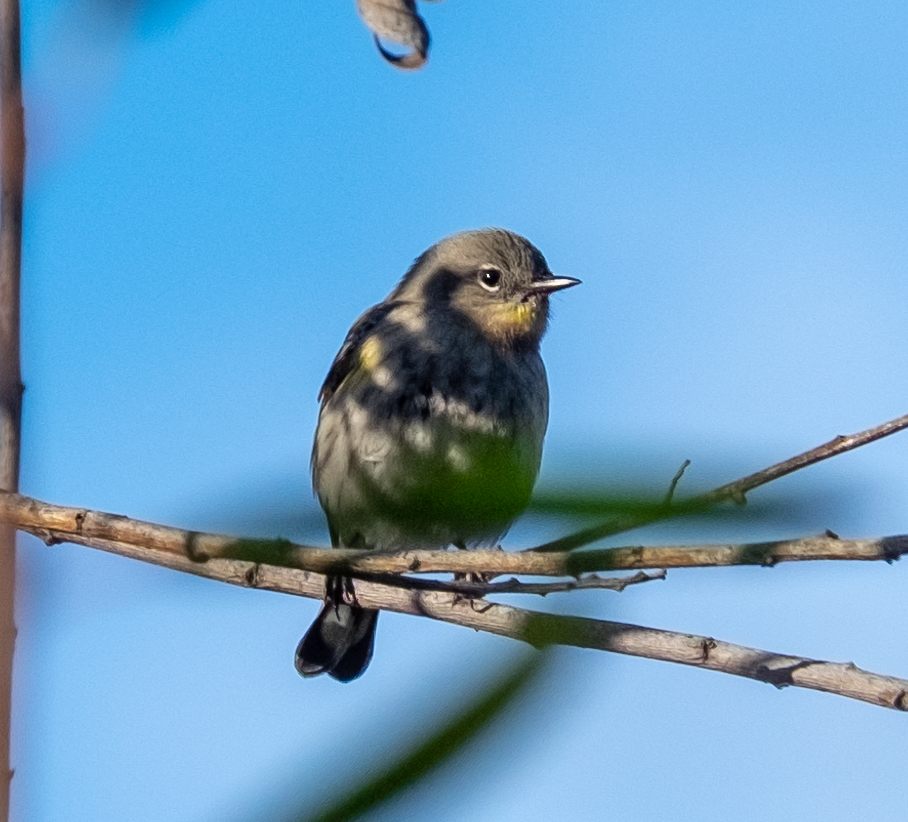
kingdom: Animalia
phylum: Chordata
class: Aves
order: Passeriformes
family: Parulidae
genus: Setophaga
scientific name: Setophaga coronata
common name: Myrtle warbler
